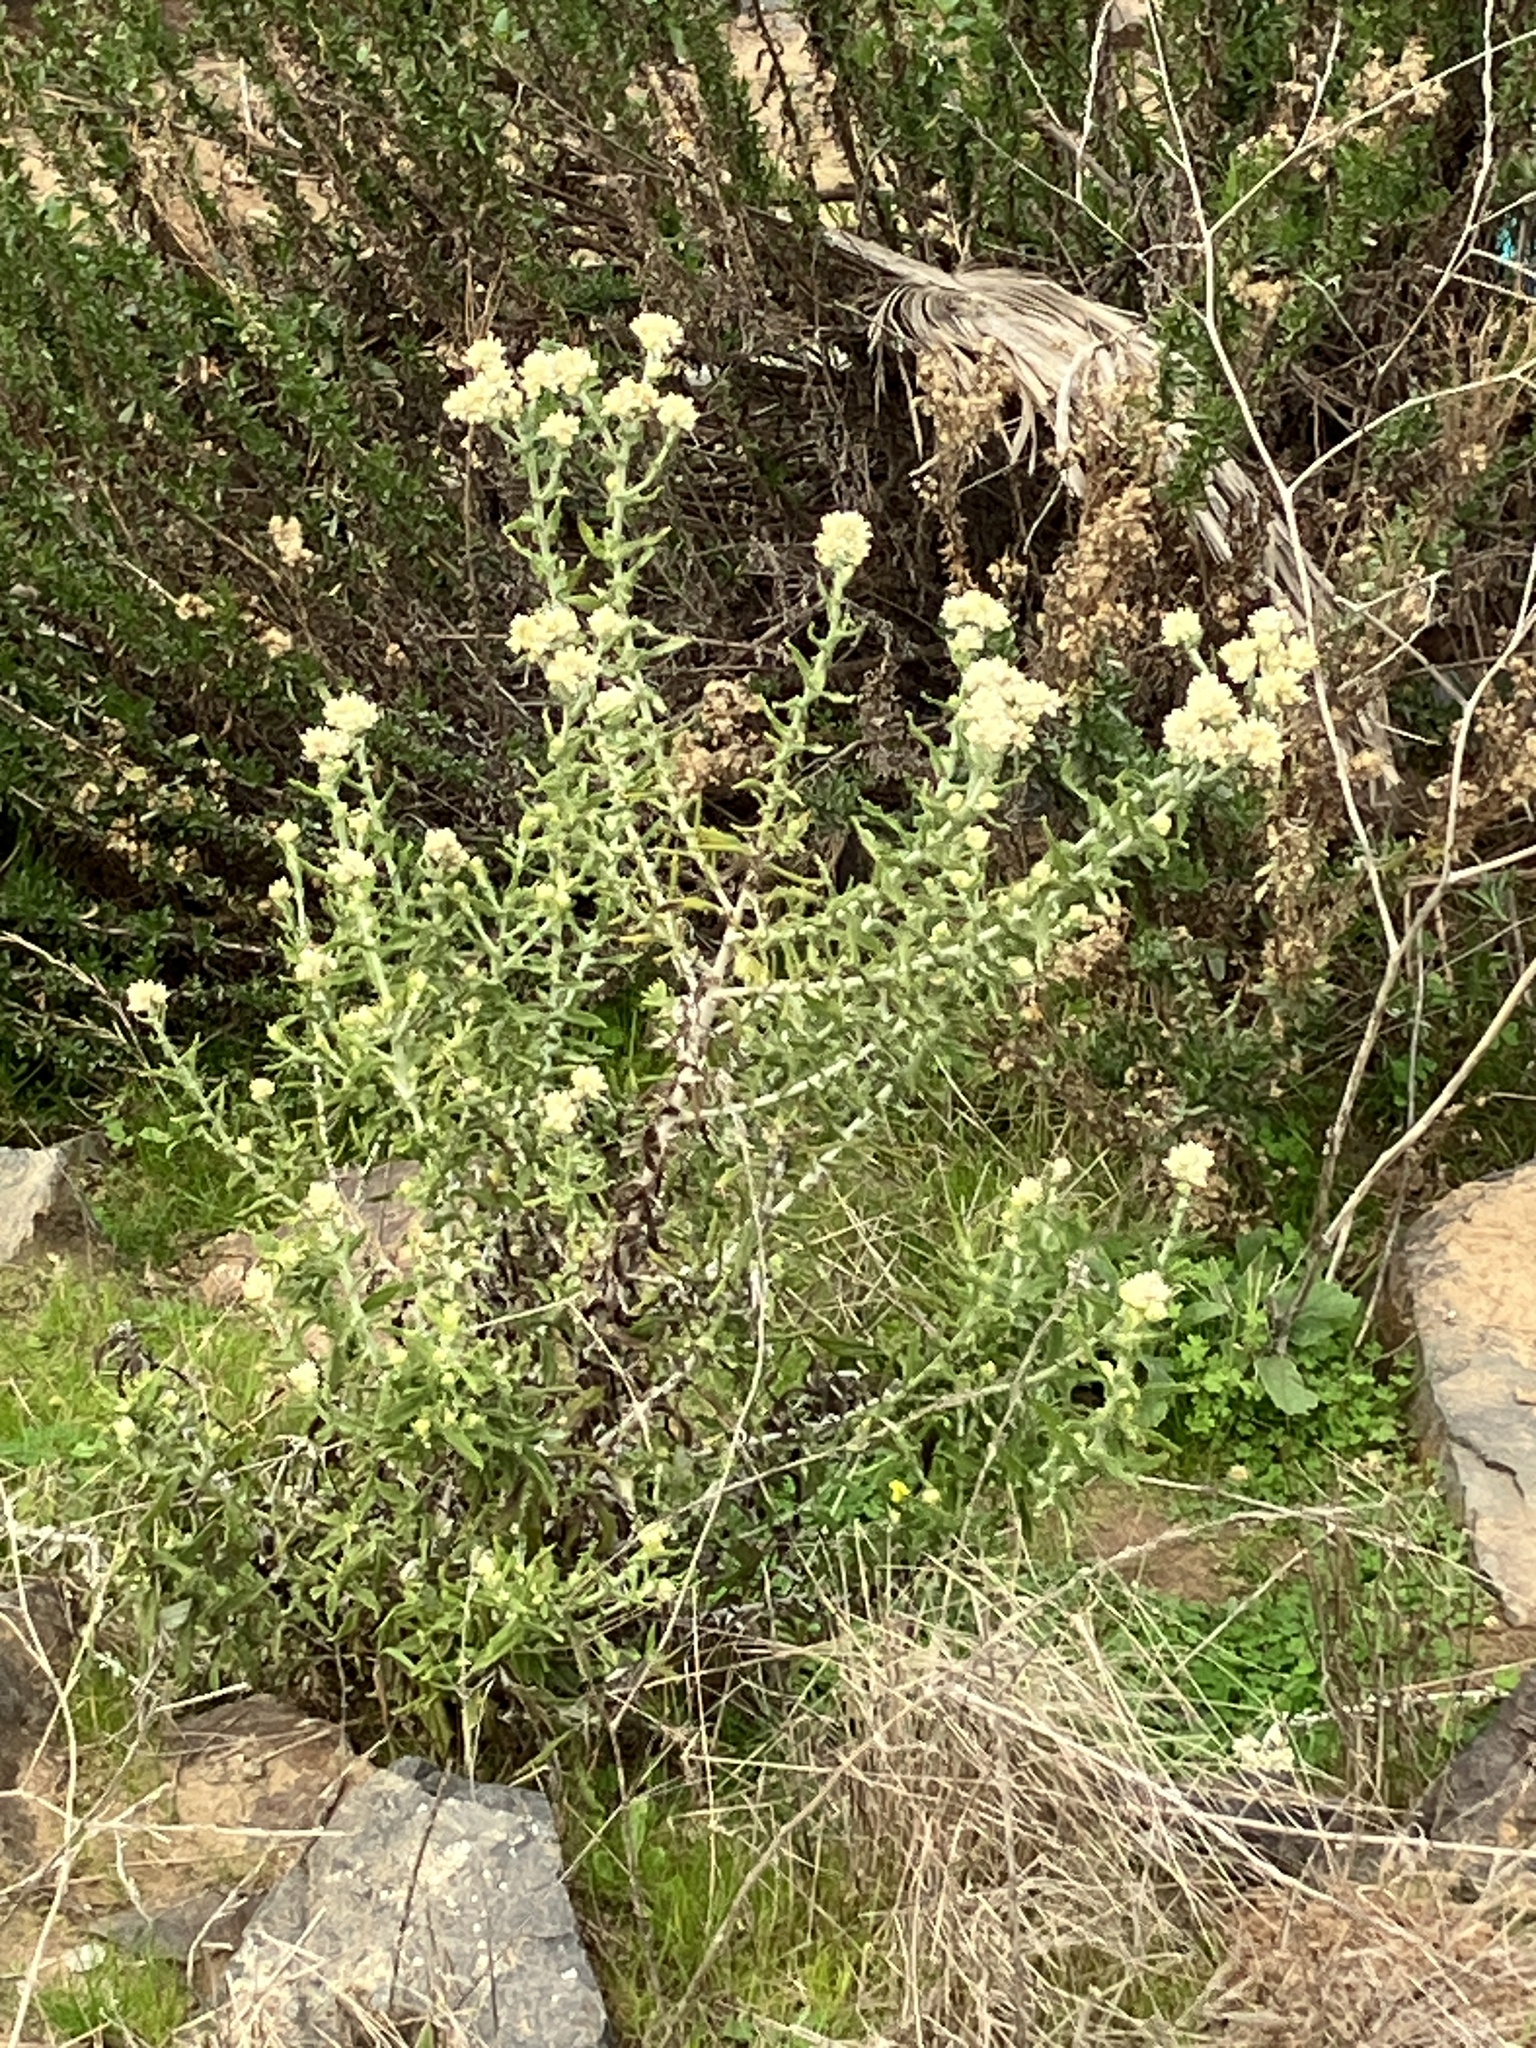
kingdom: Plantae
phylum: Tracheophyta
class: Magnoliopsida
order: Asterales
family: Asteraceae
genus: Pseudognaphalium
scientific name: Pseudognaphalium biolettii
